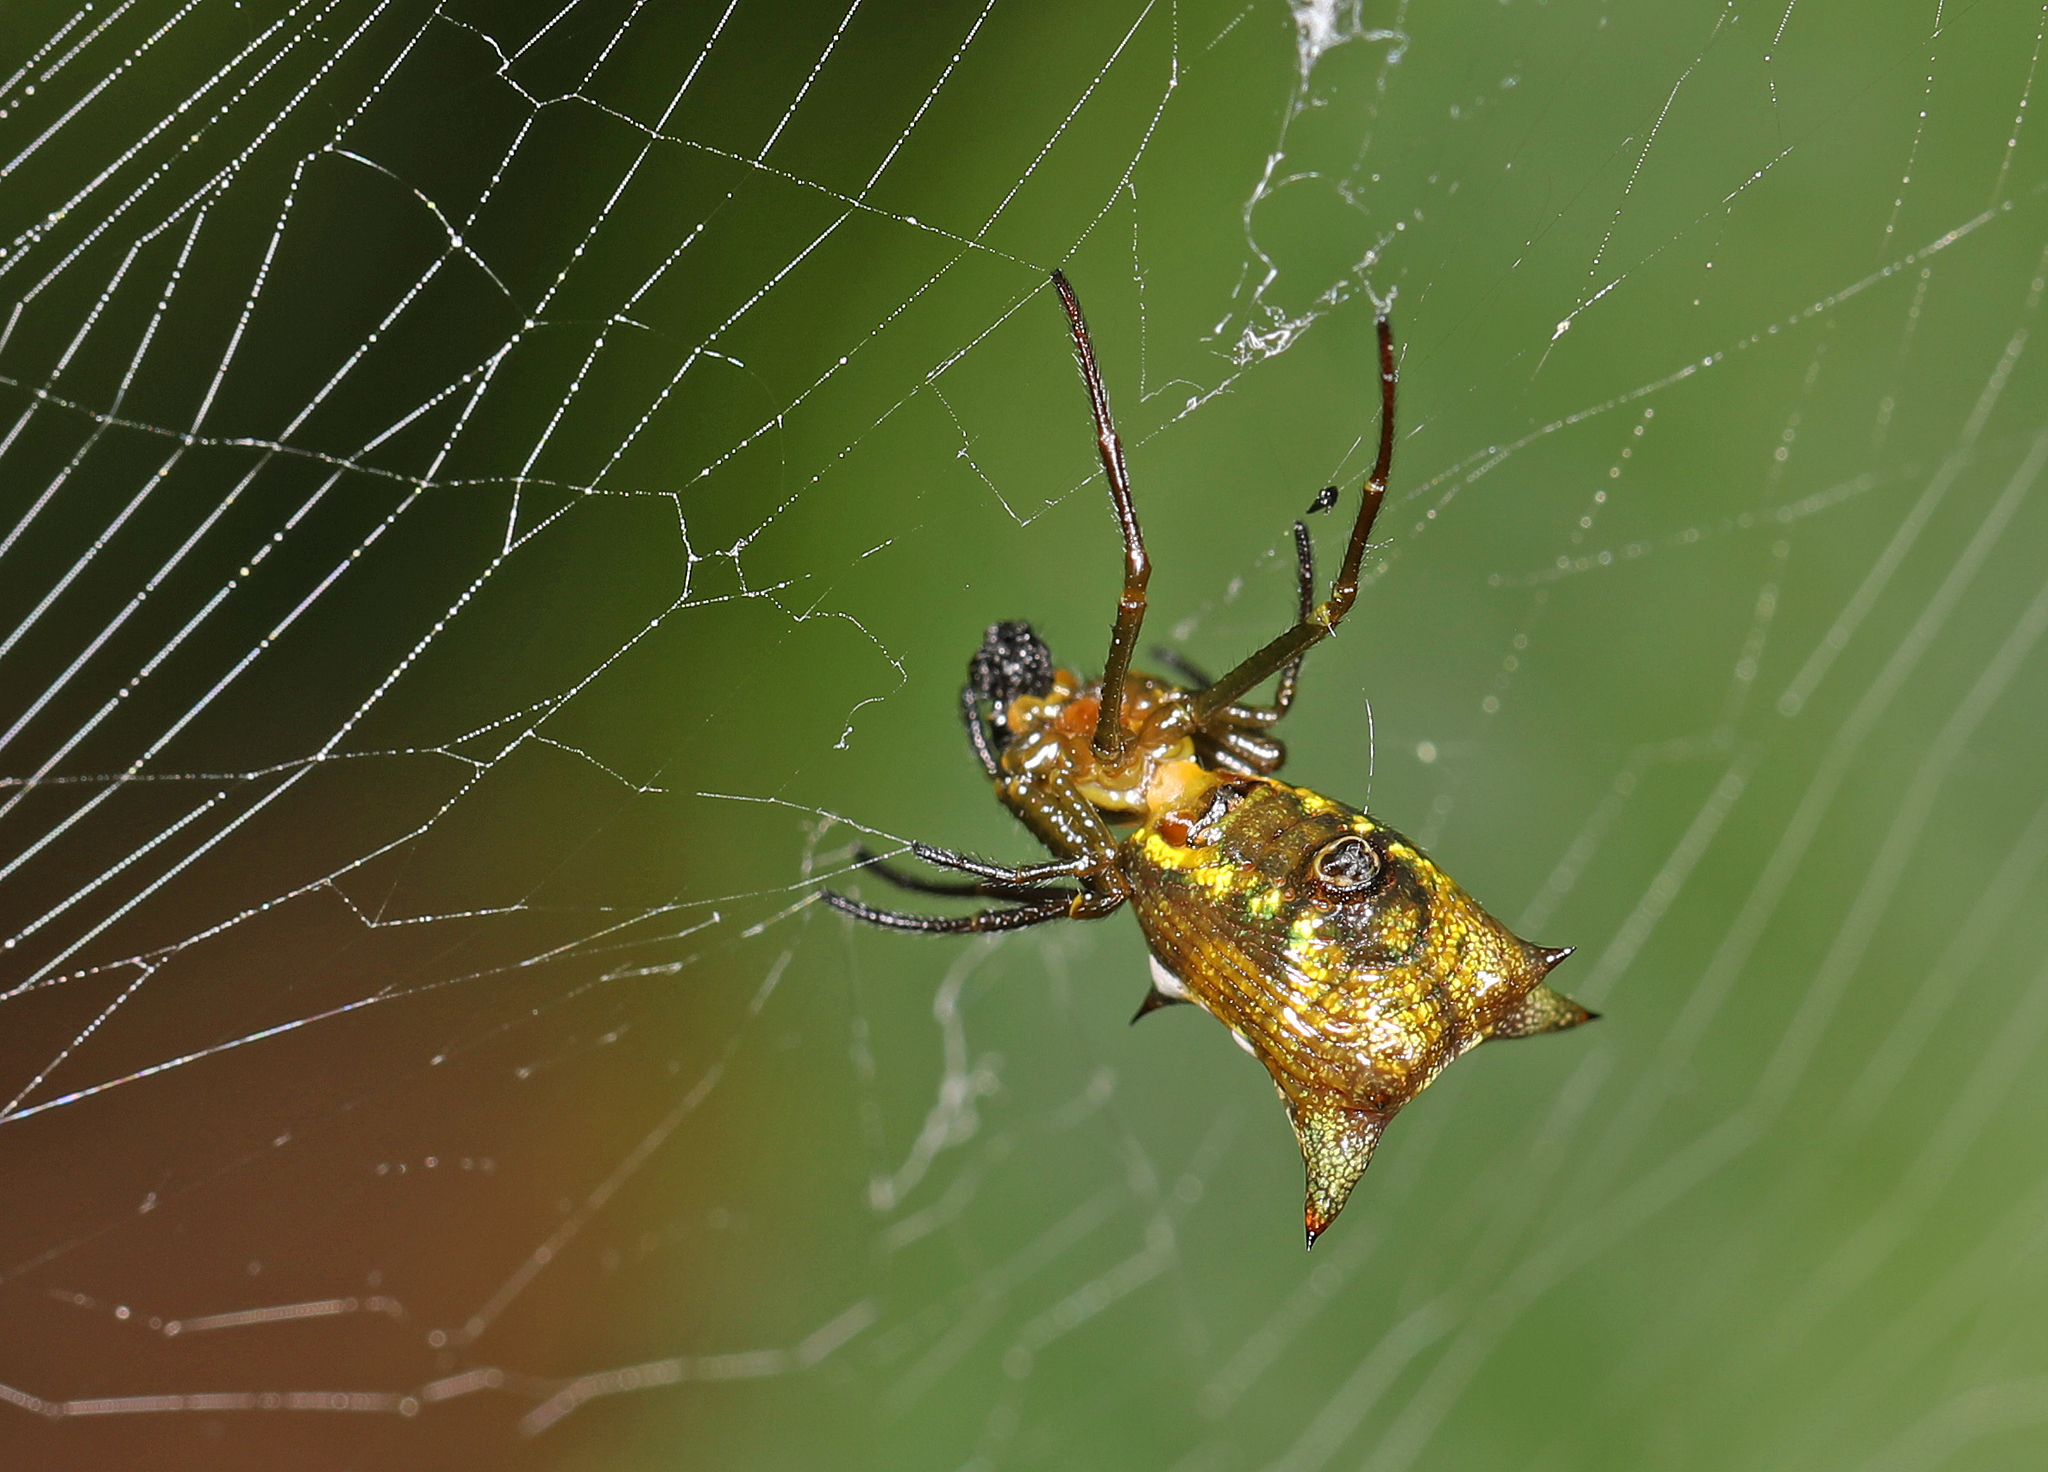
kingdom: Animalia
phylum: Arthropoda
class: Arachnida
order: Araneae
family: Araneidae
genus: Micrathena
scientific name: Micrathena
